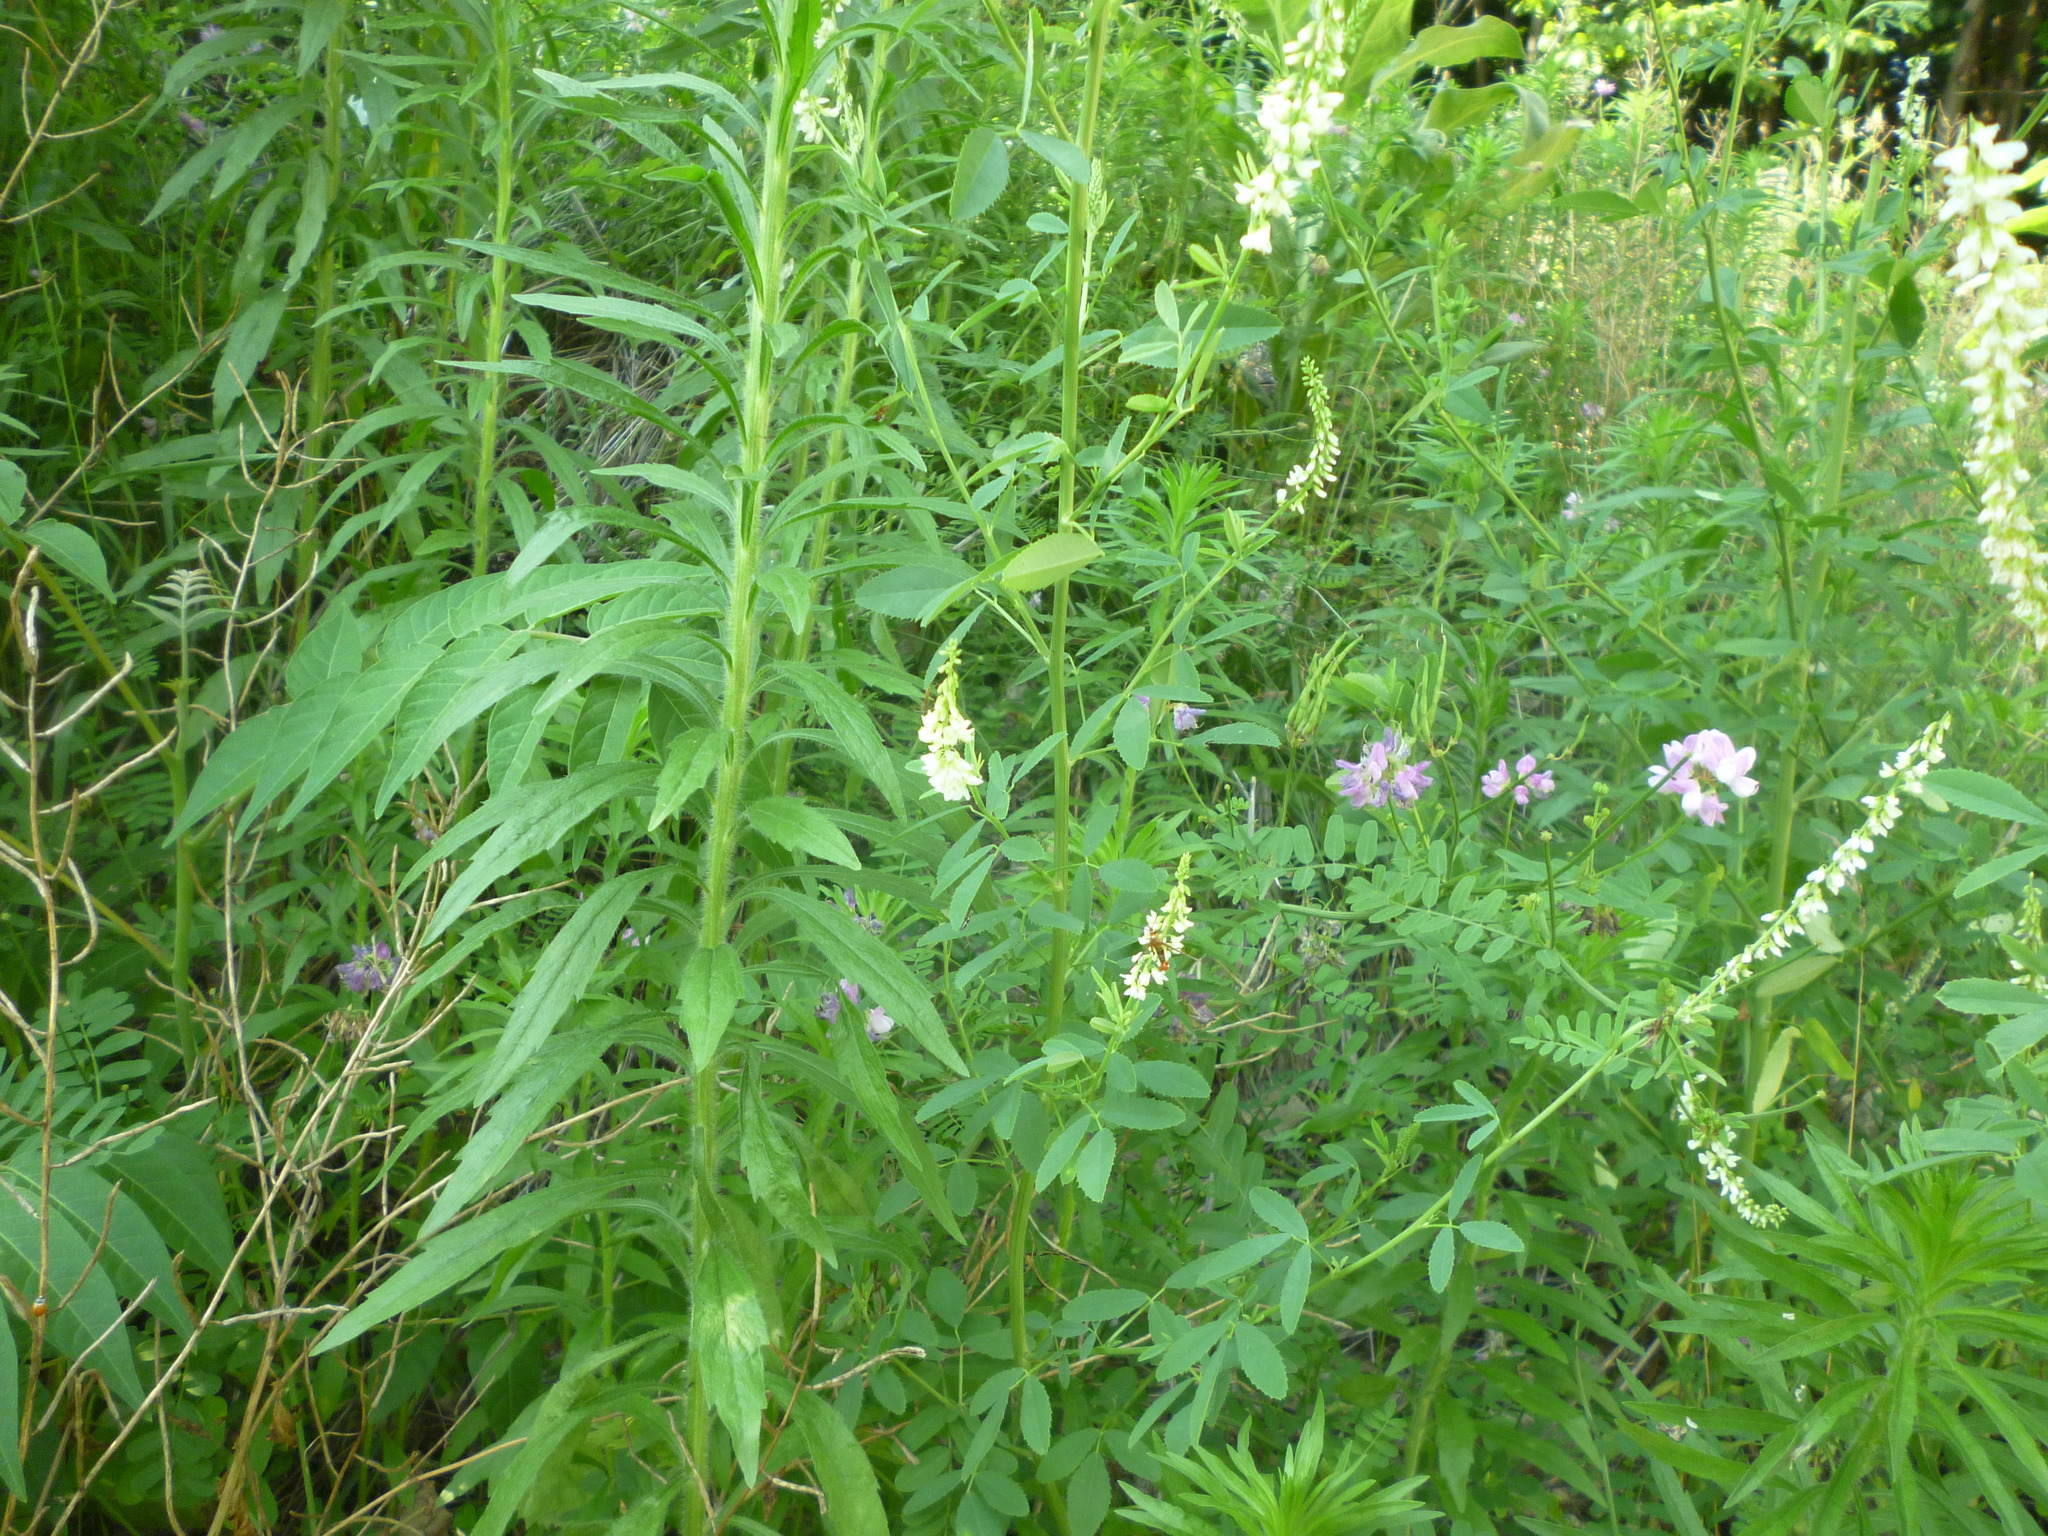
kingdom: Plantae
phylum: Tracheophyta
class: Magnoliopsida
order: Fabales
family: Fabaceae
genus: Melilotus
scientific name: Melilotus albus
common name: White melilot
